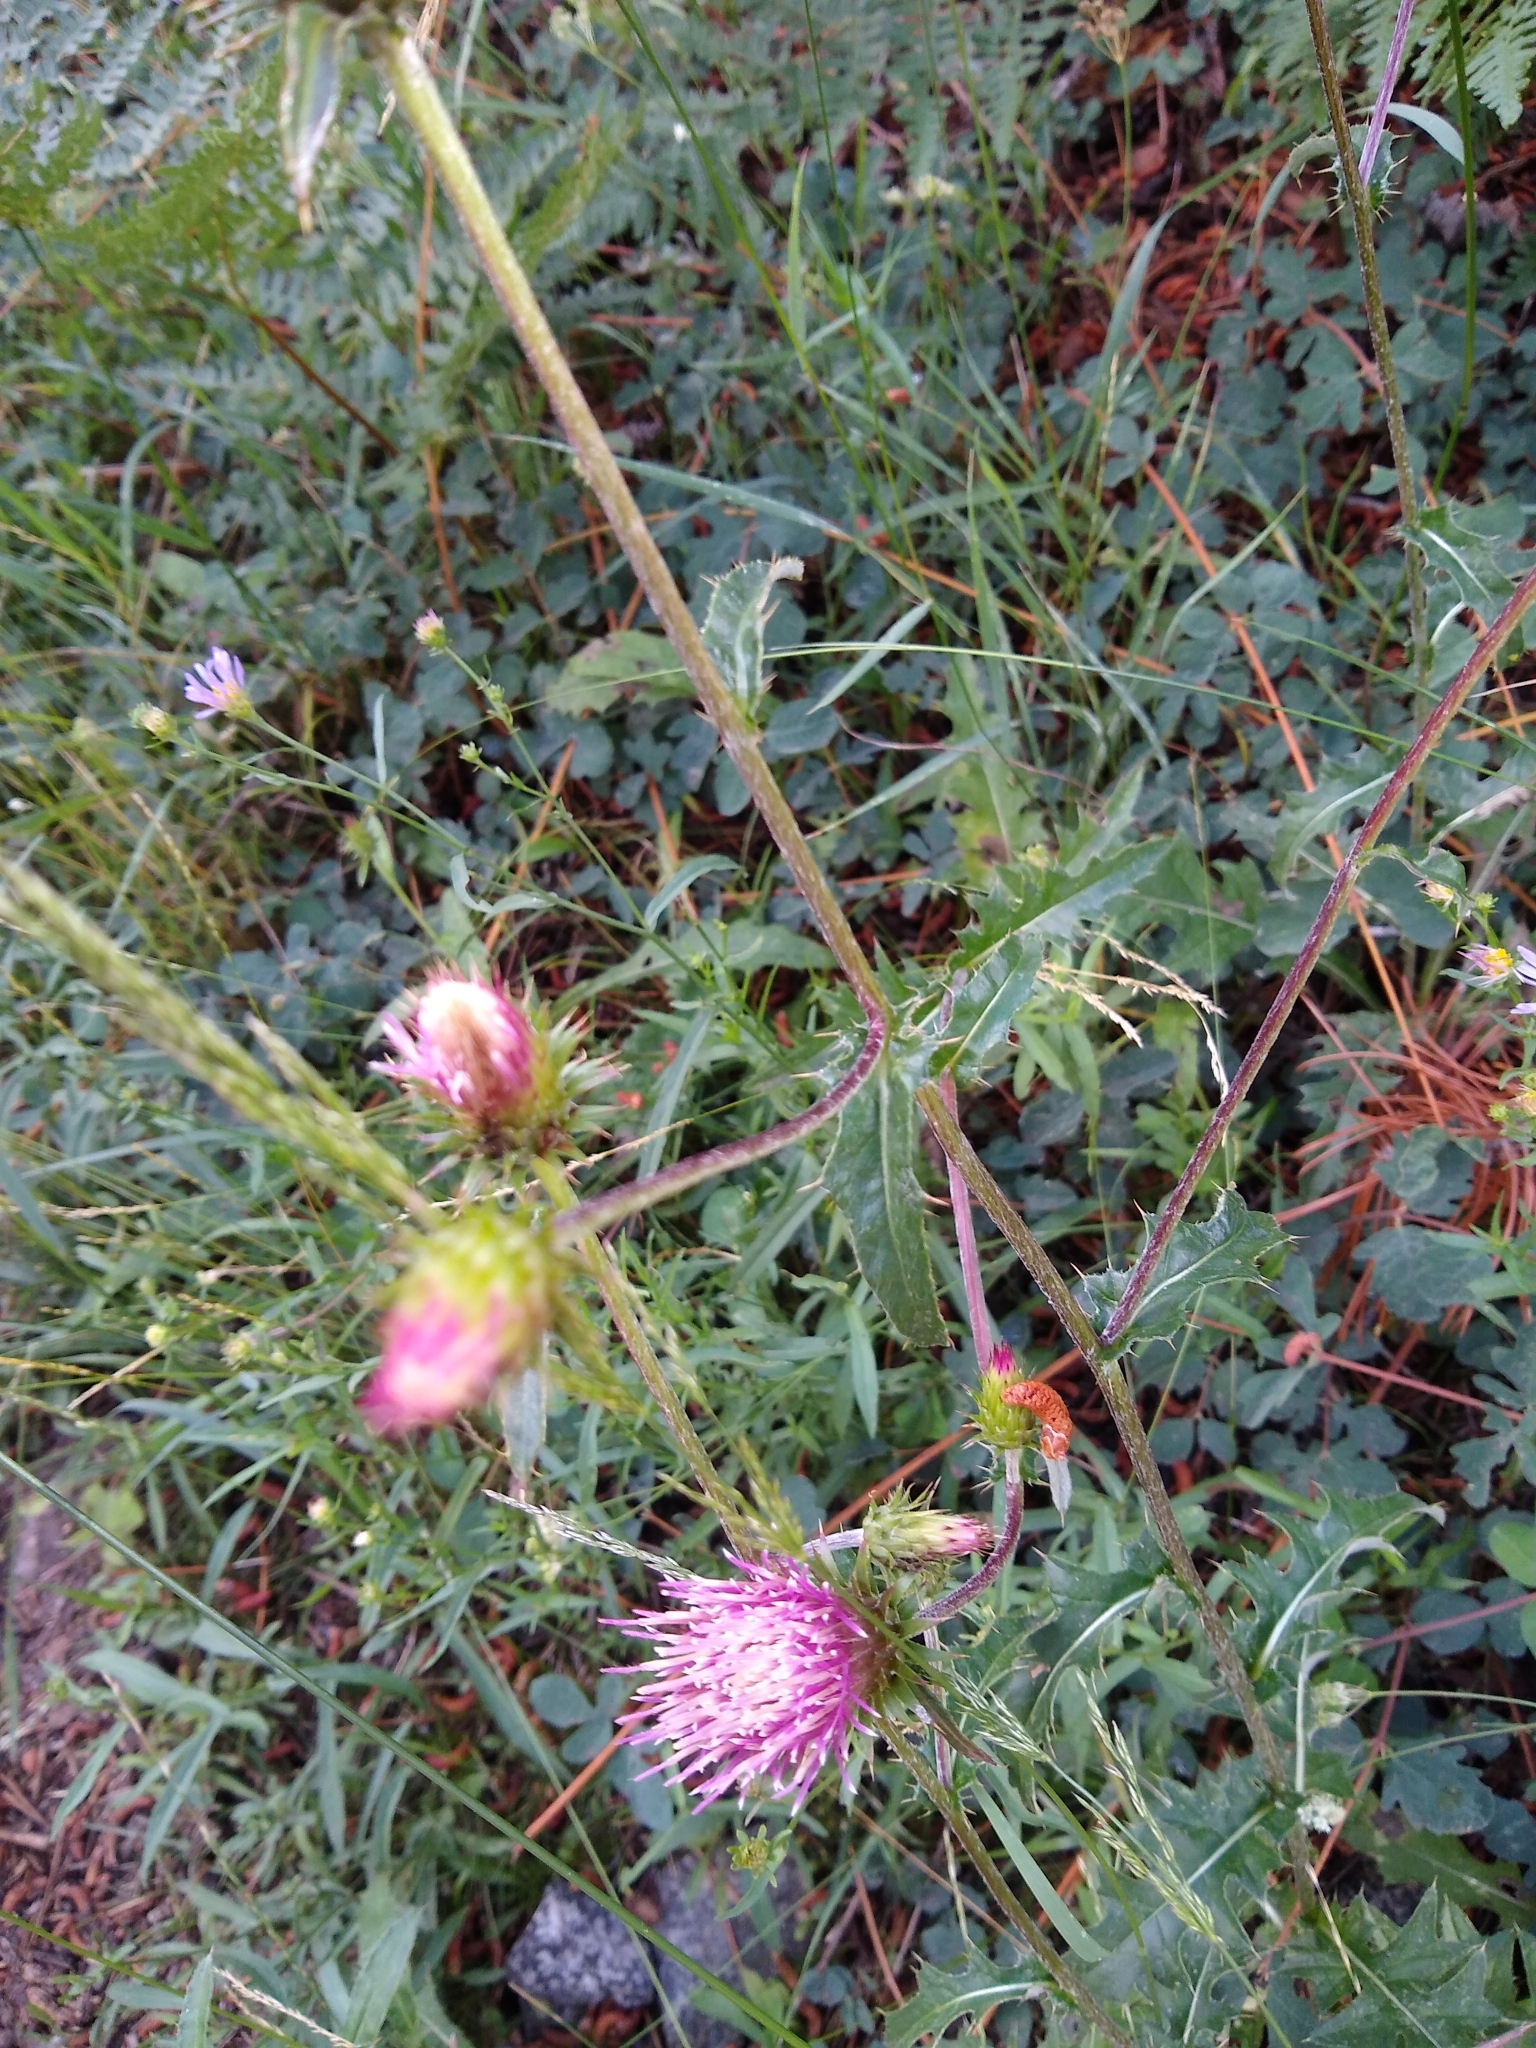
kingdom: Plantae
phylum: Tracheophyta
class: Magnoliopsida
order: Asterales
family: Asteraceae
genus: Cirsium
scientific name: Cirsium andersonii
